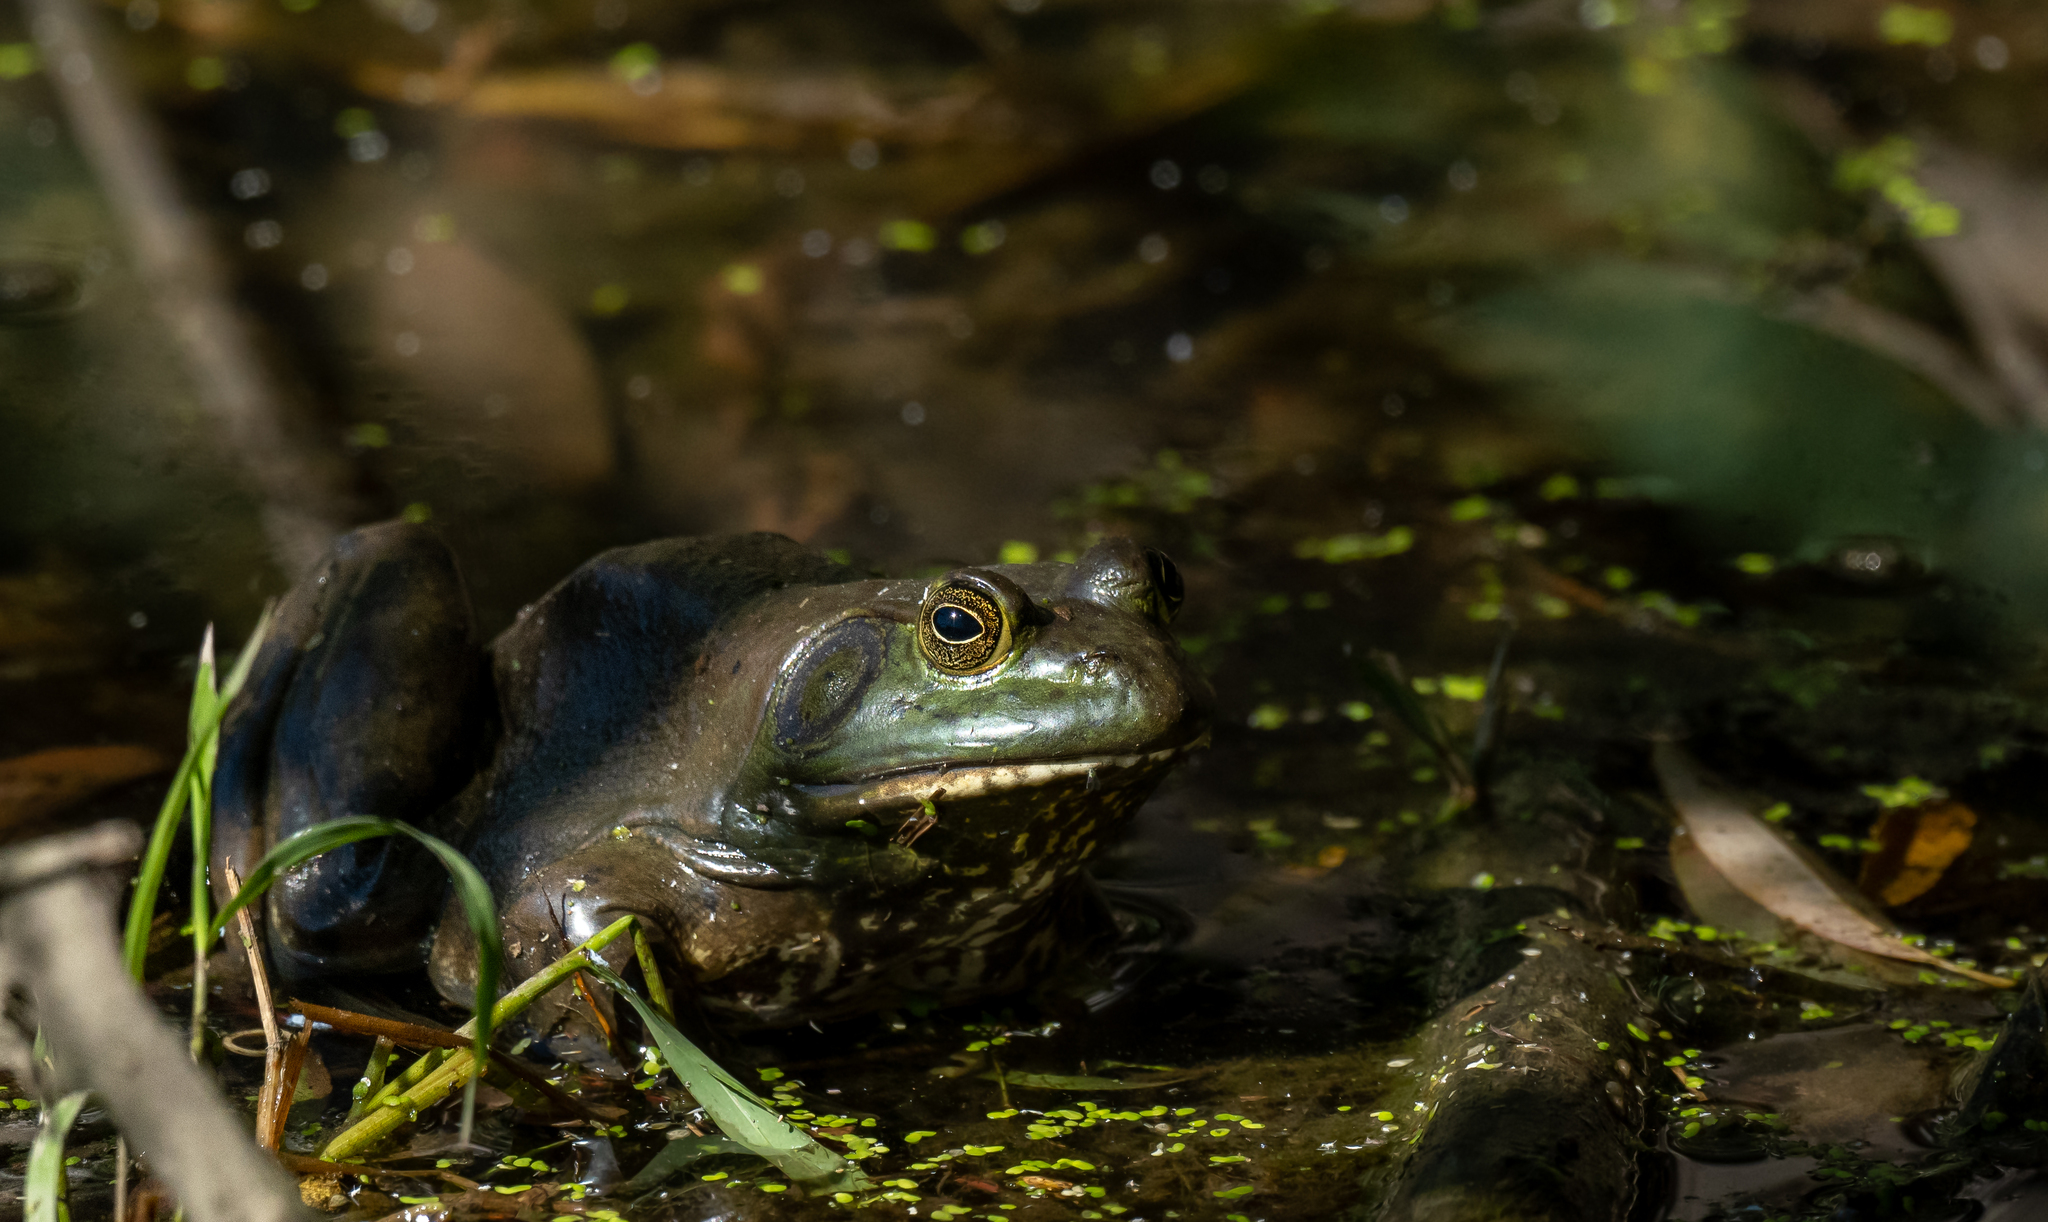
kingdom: Animalia
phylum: Chordata
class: Amphibia
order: Anura
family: Ranidae
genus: Lithobates
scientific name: Lithobates catesbeianus
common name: American bullfrog
